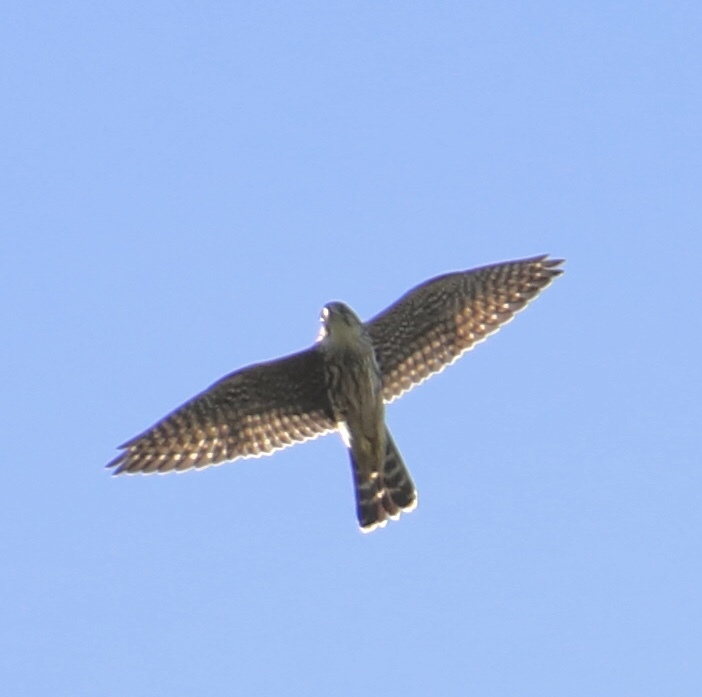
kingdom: Animalia
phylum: Chordata
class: Aves
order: Falconiformes
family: Falconidae
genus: Falco
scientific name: Falco columbarius
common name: Merlin
